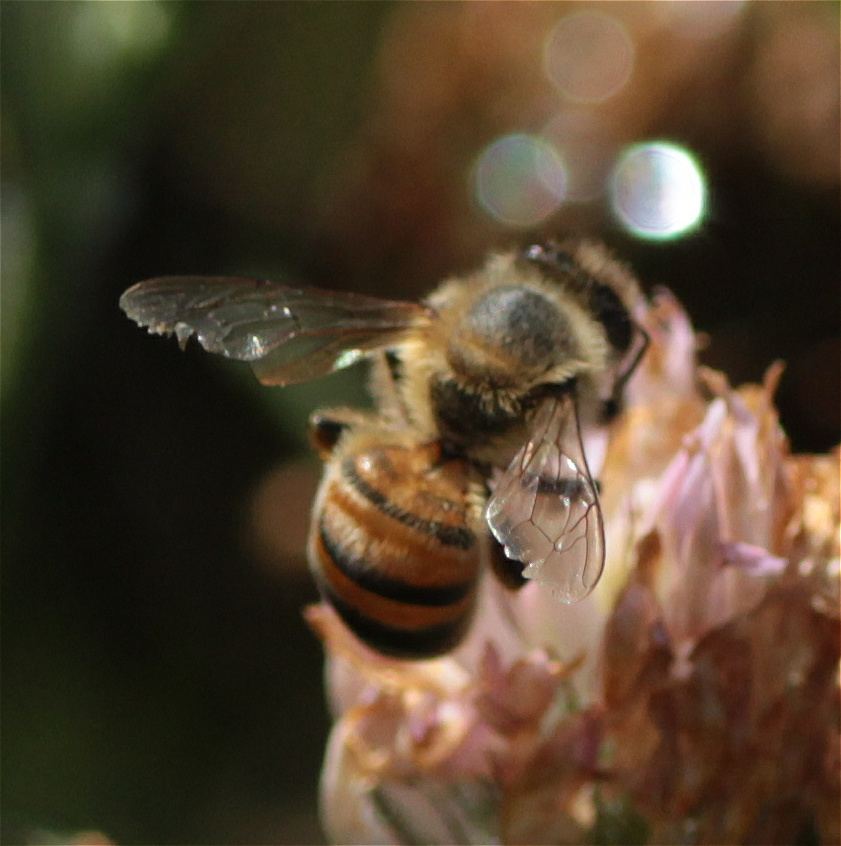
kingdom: Animalia
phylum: Arthropoda
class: Insecta
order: Hymenoptera
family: Apidae
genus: Apis
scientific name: Apis mellifera
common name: Honey bee
